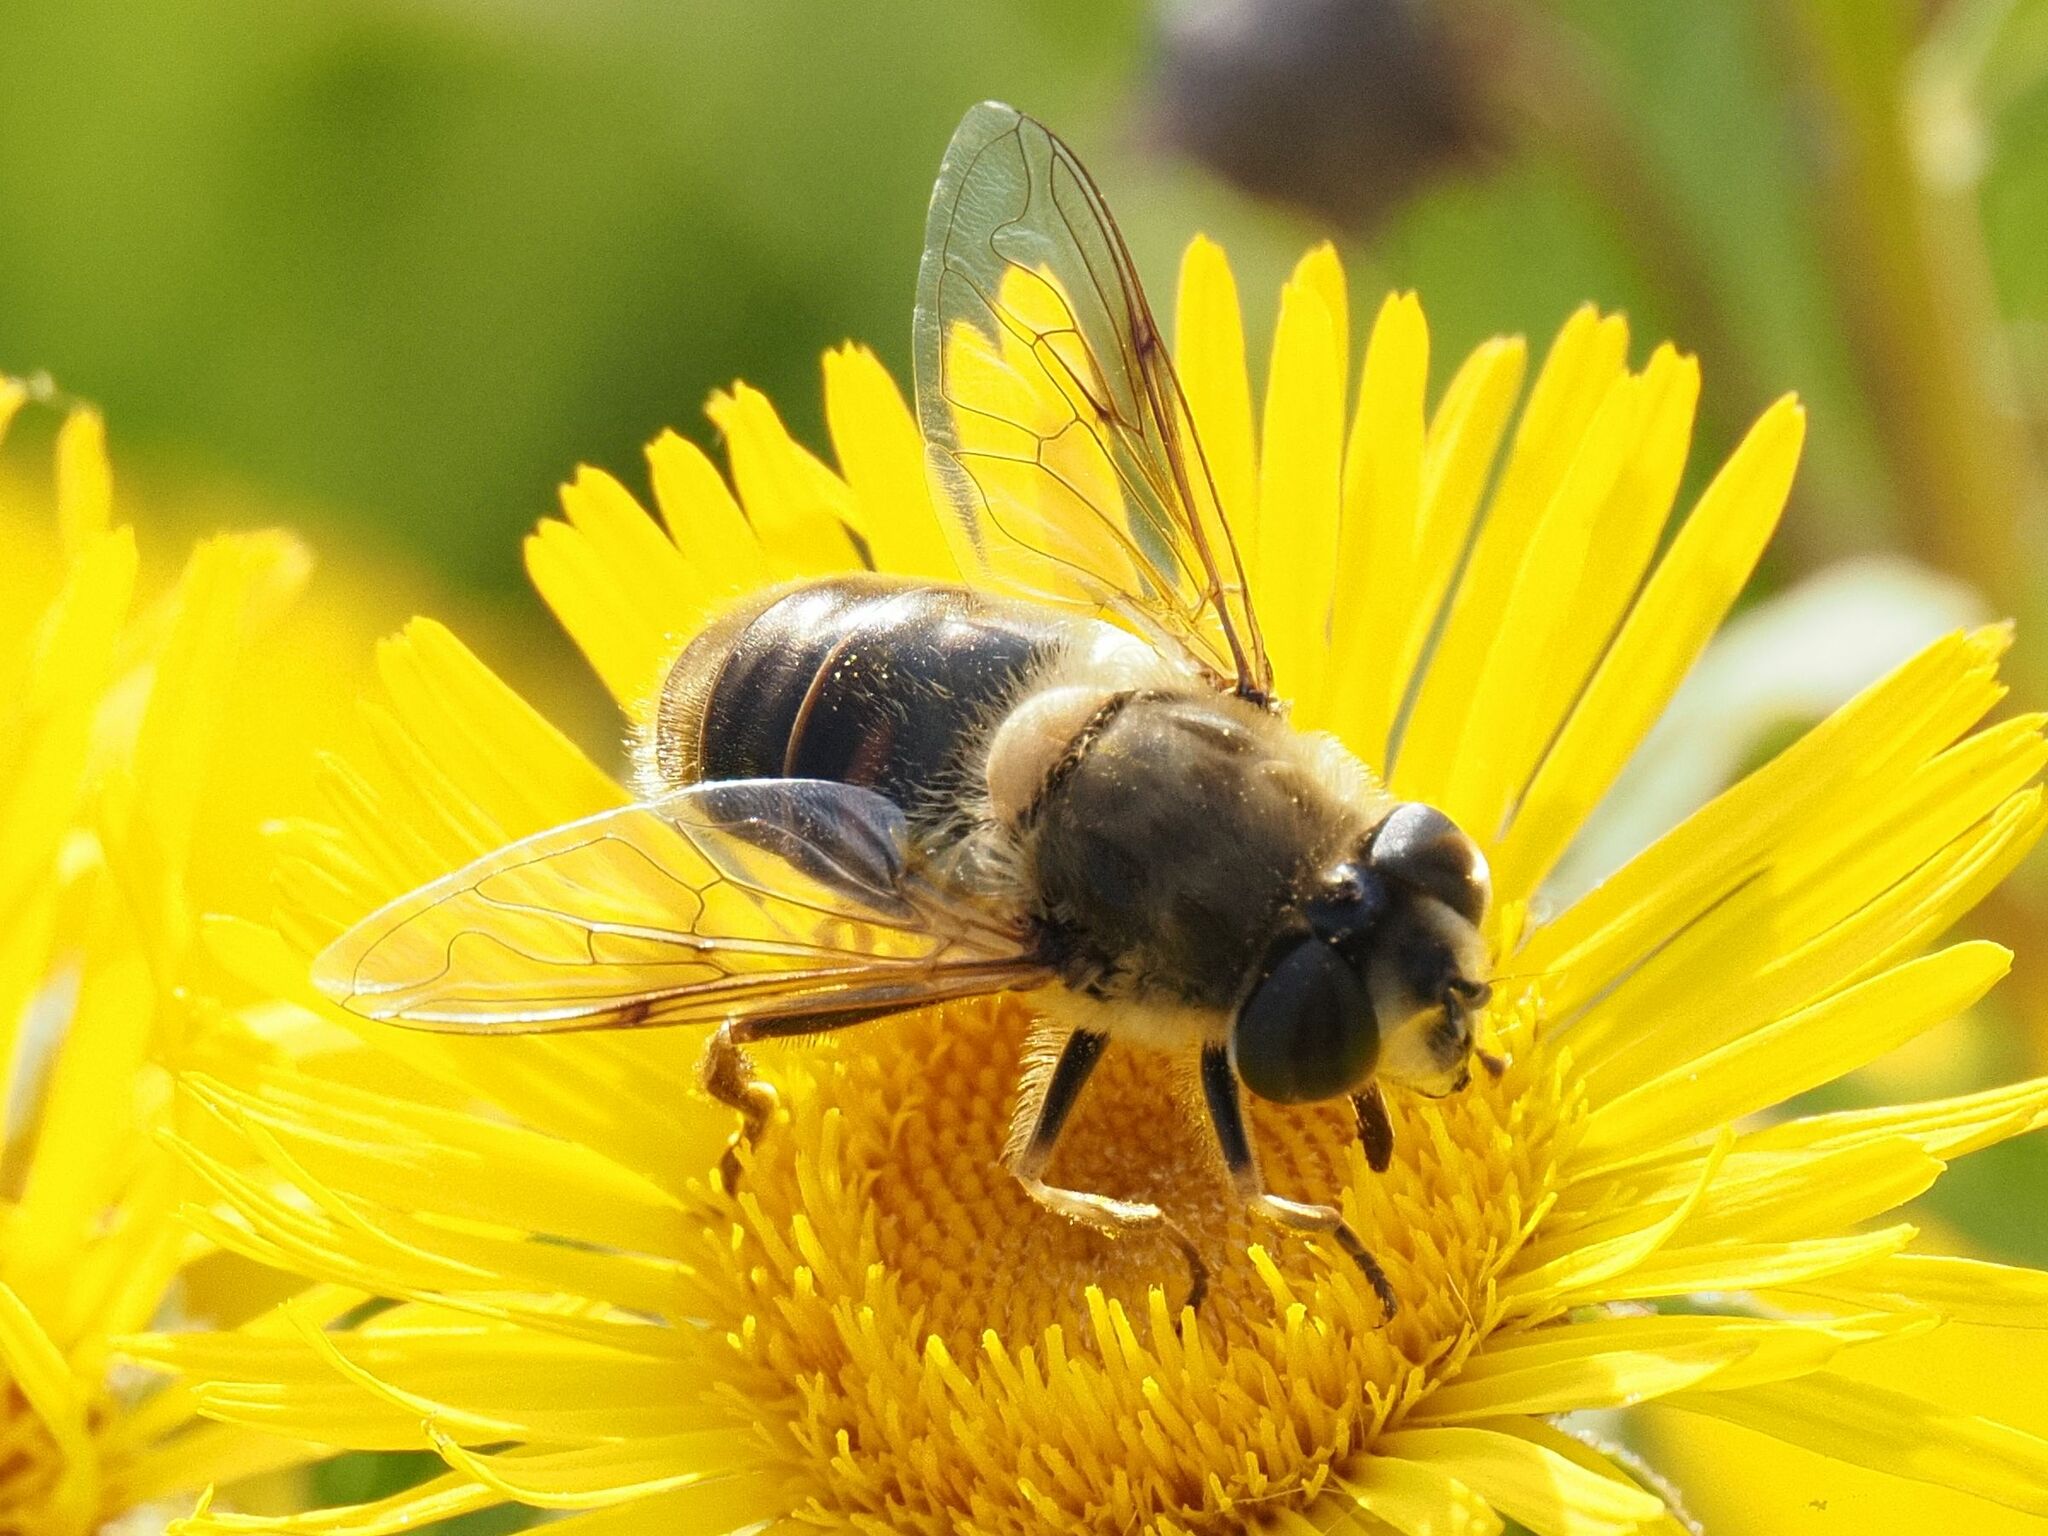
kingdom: Animalia
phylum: Arthropoda
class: Insecta
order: Diptera
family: Syrphidae
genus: Eristalis
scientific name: Eristalis tenax
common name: Drone fly
